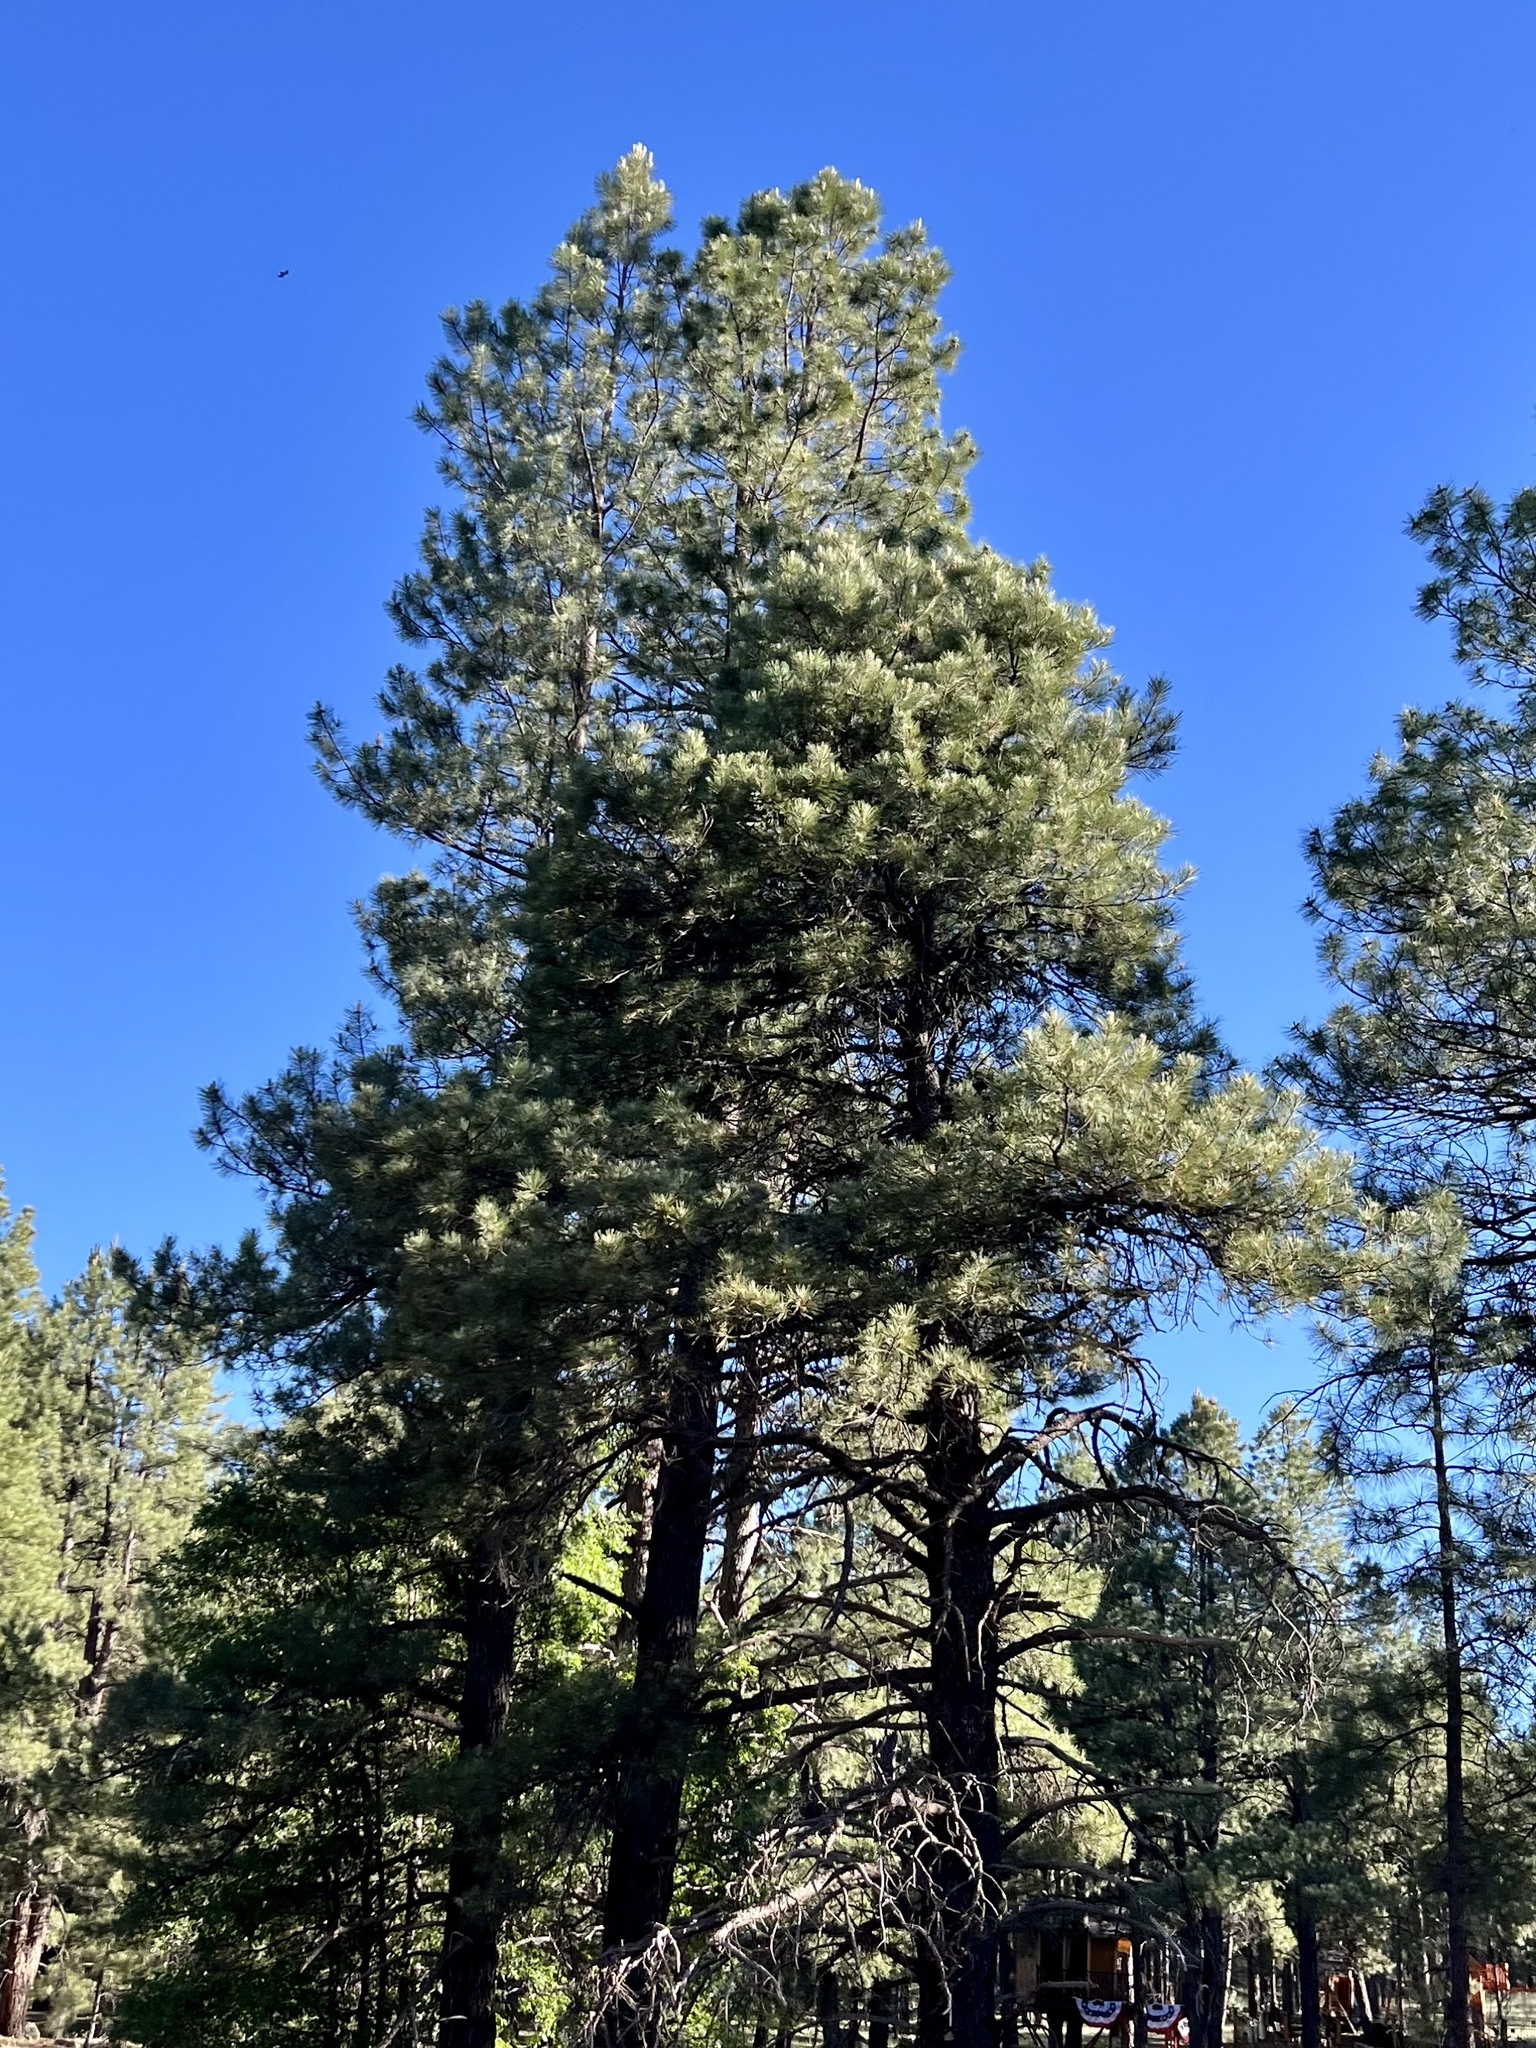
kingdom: Plantae
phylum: Tracheophyta
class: Pinopsida
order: Pinales
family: Pinaceae
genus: Pinus
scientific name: Pinus ponderosa
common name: Western yellow-pine
